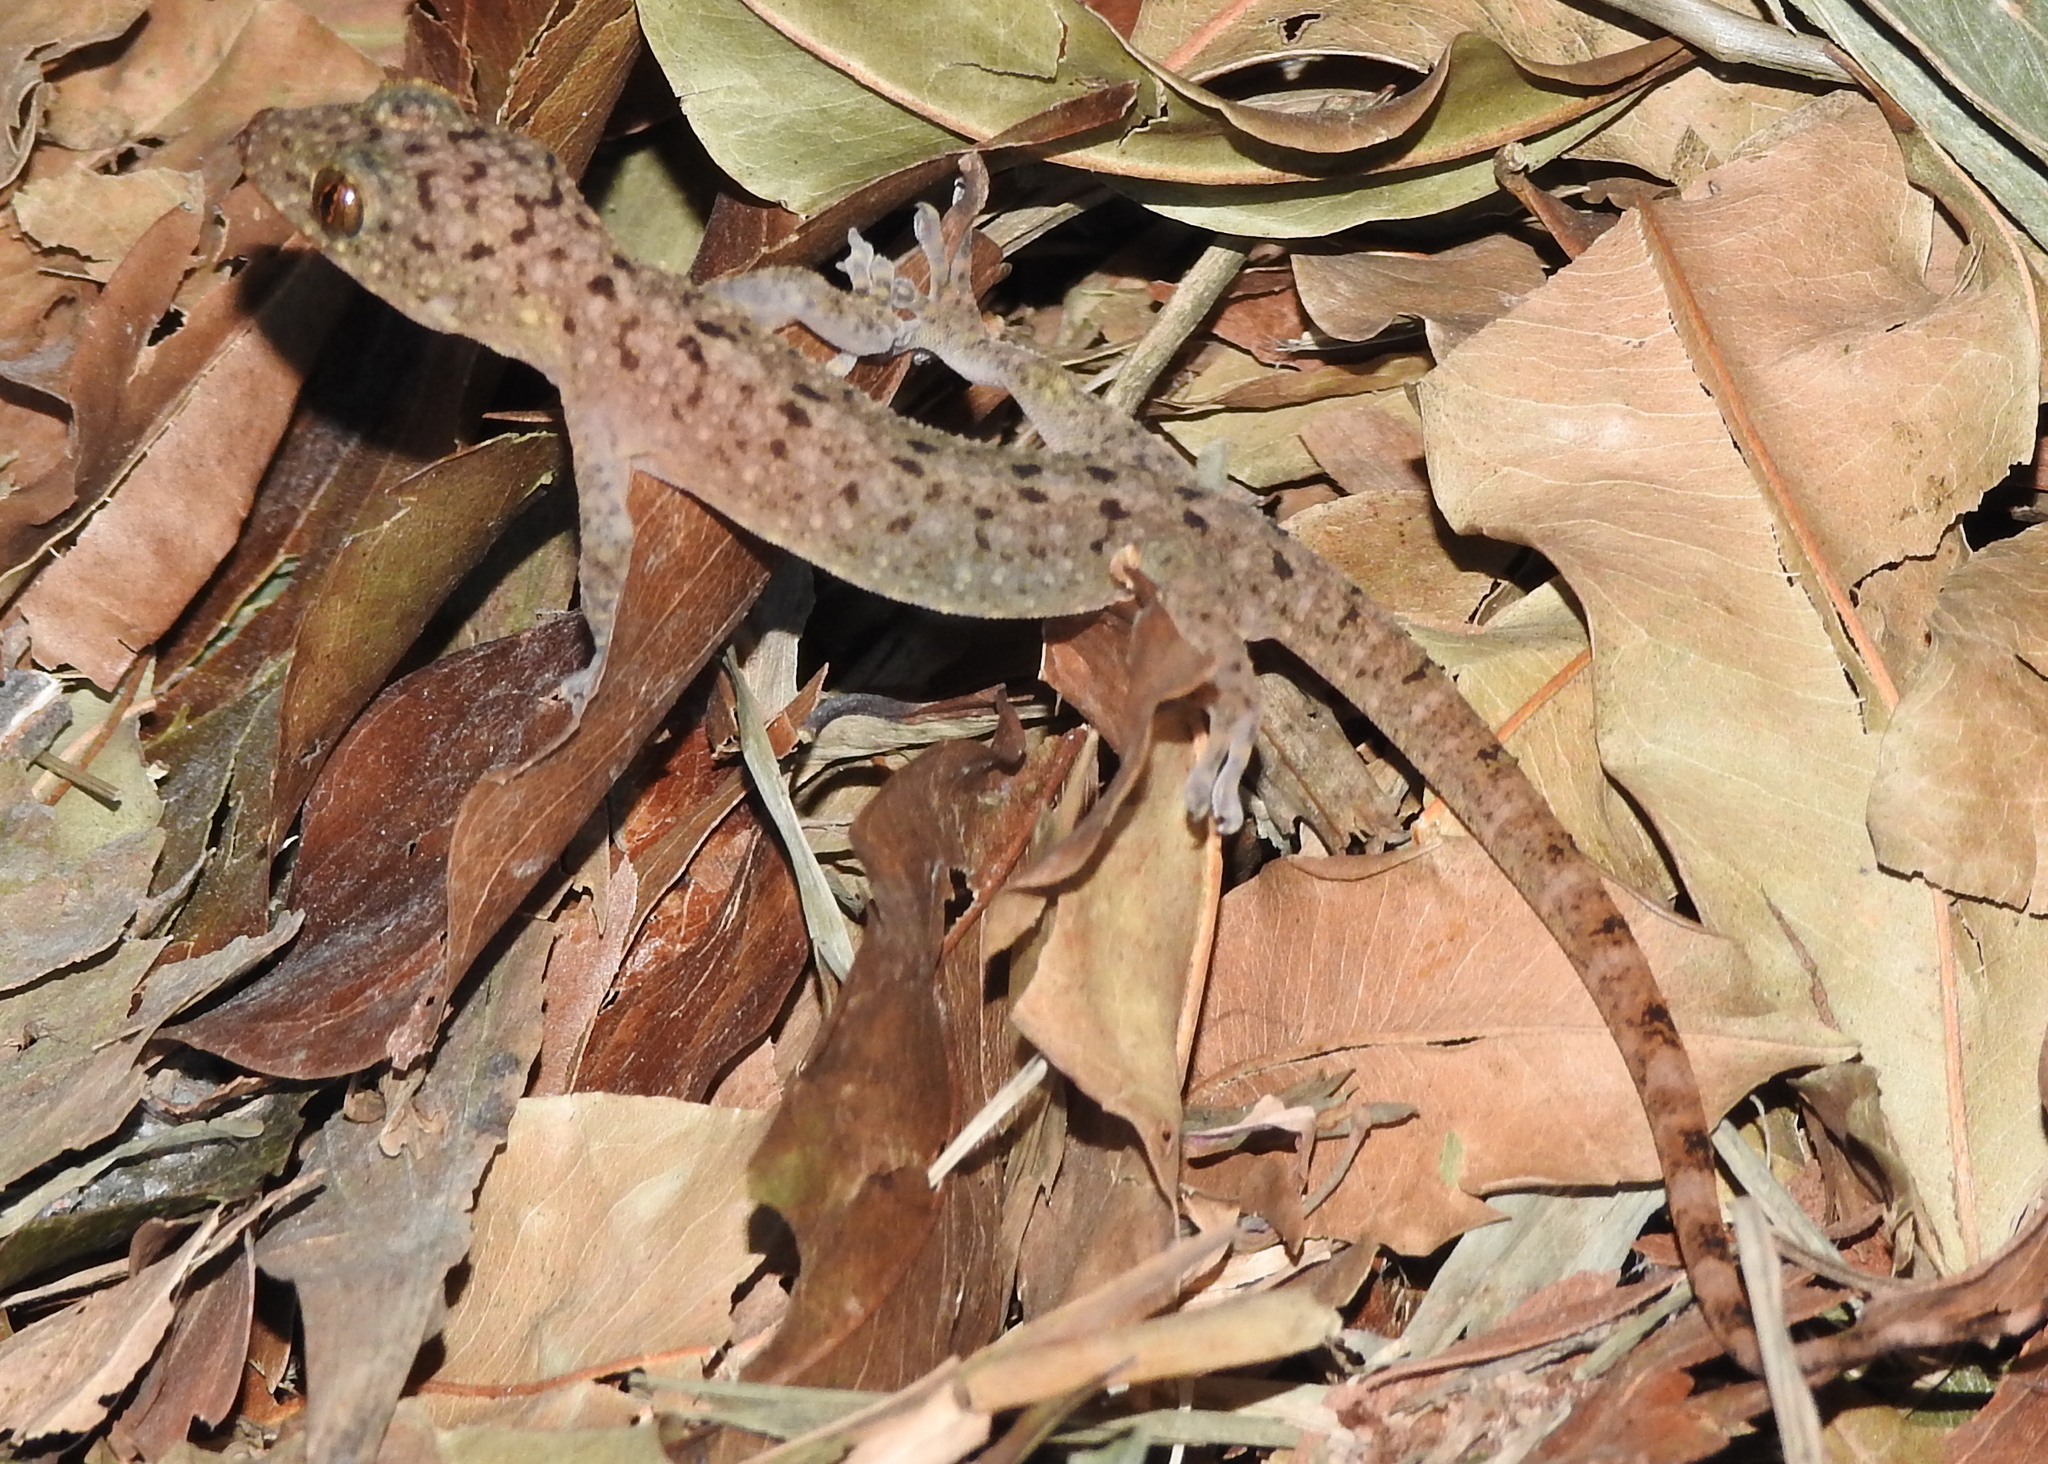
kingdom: Animalia
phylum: Chordata
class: Squamata
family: Gekkonidae
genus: Gekko
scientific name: Gekko monarchus
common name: Spotted house gecko
